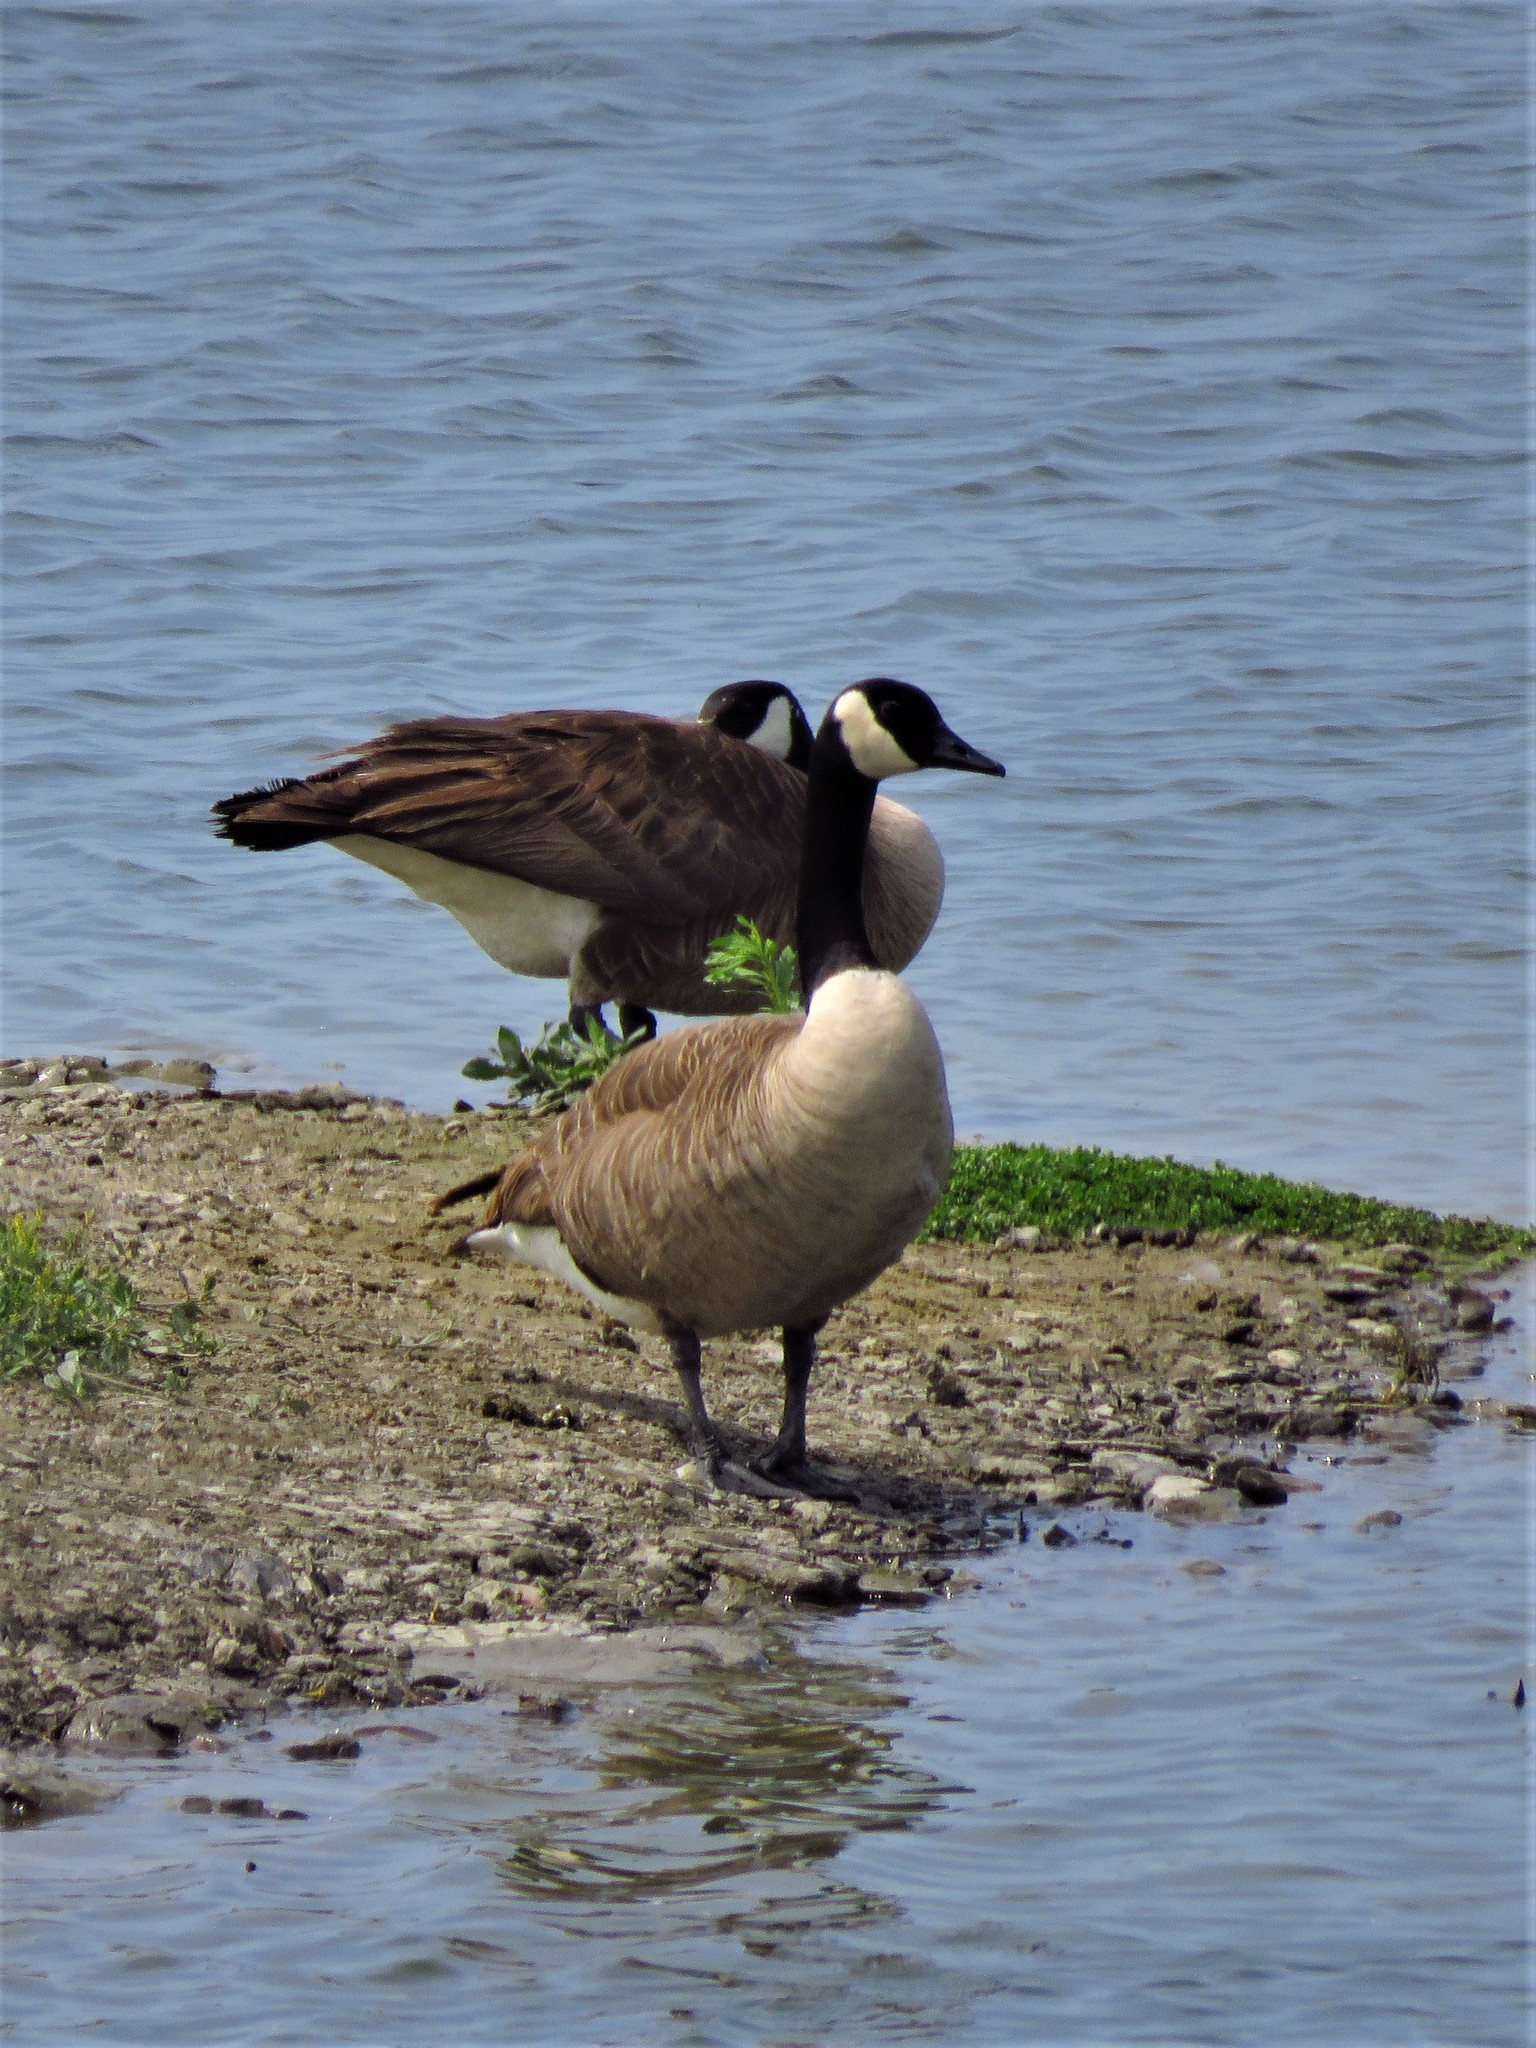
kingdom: Animalia
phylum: Chordata
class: Aves
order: Anseriformes
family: Anatidae
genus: Branta
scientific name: Branta canadensis
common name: Canada goose
